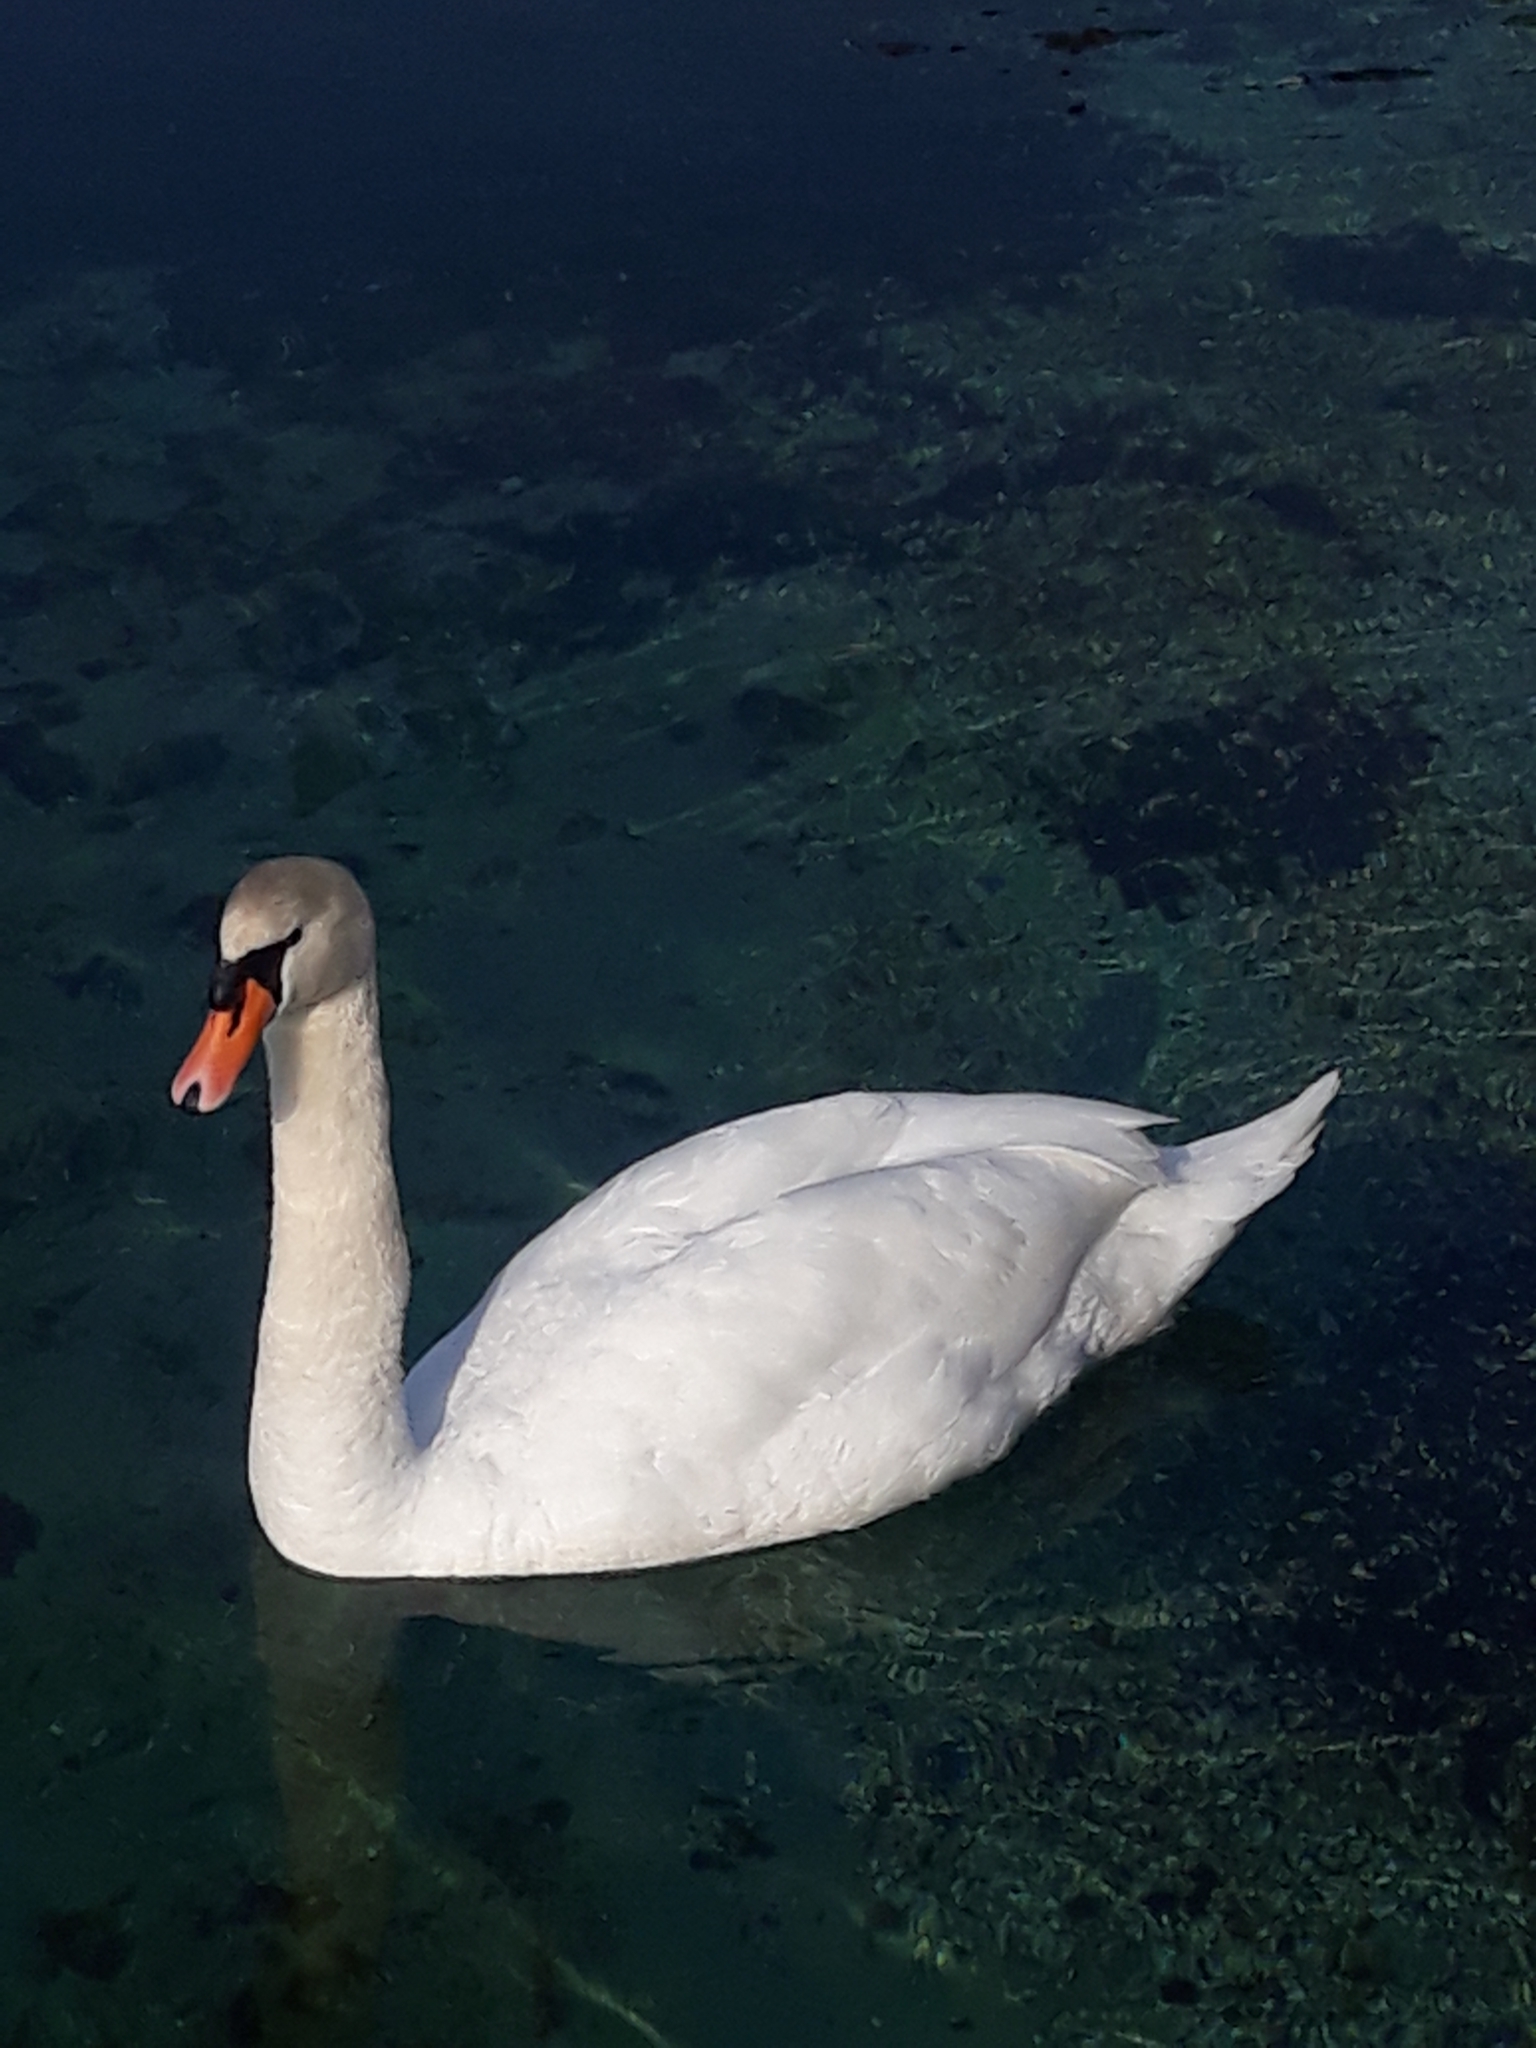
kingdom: Animalia
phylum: Chordata
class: Aves
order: Anseriformes
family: Anatidae
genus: Cygnus
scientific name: Cygnus olor
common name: Mute swan
